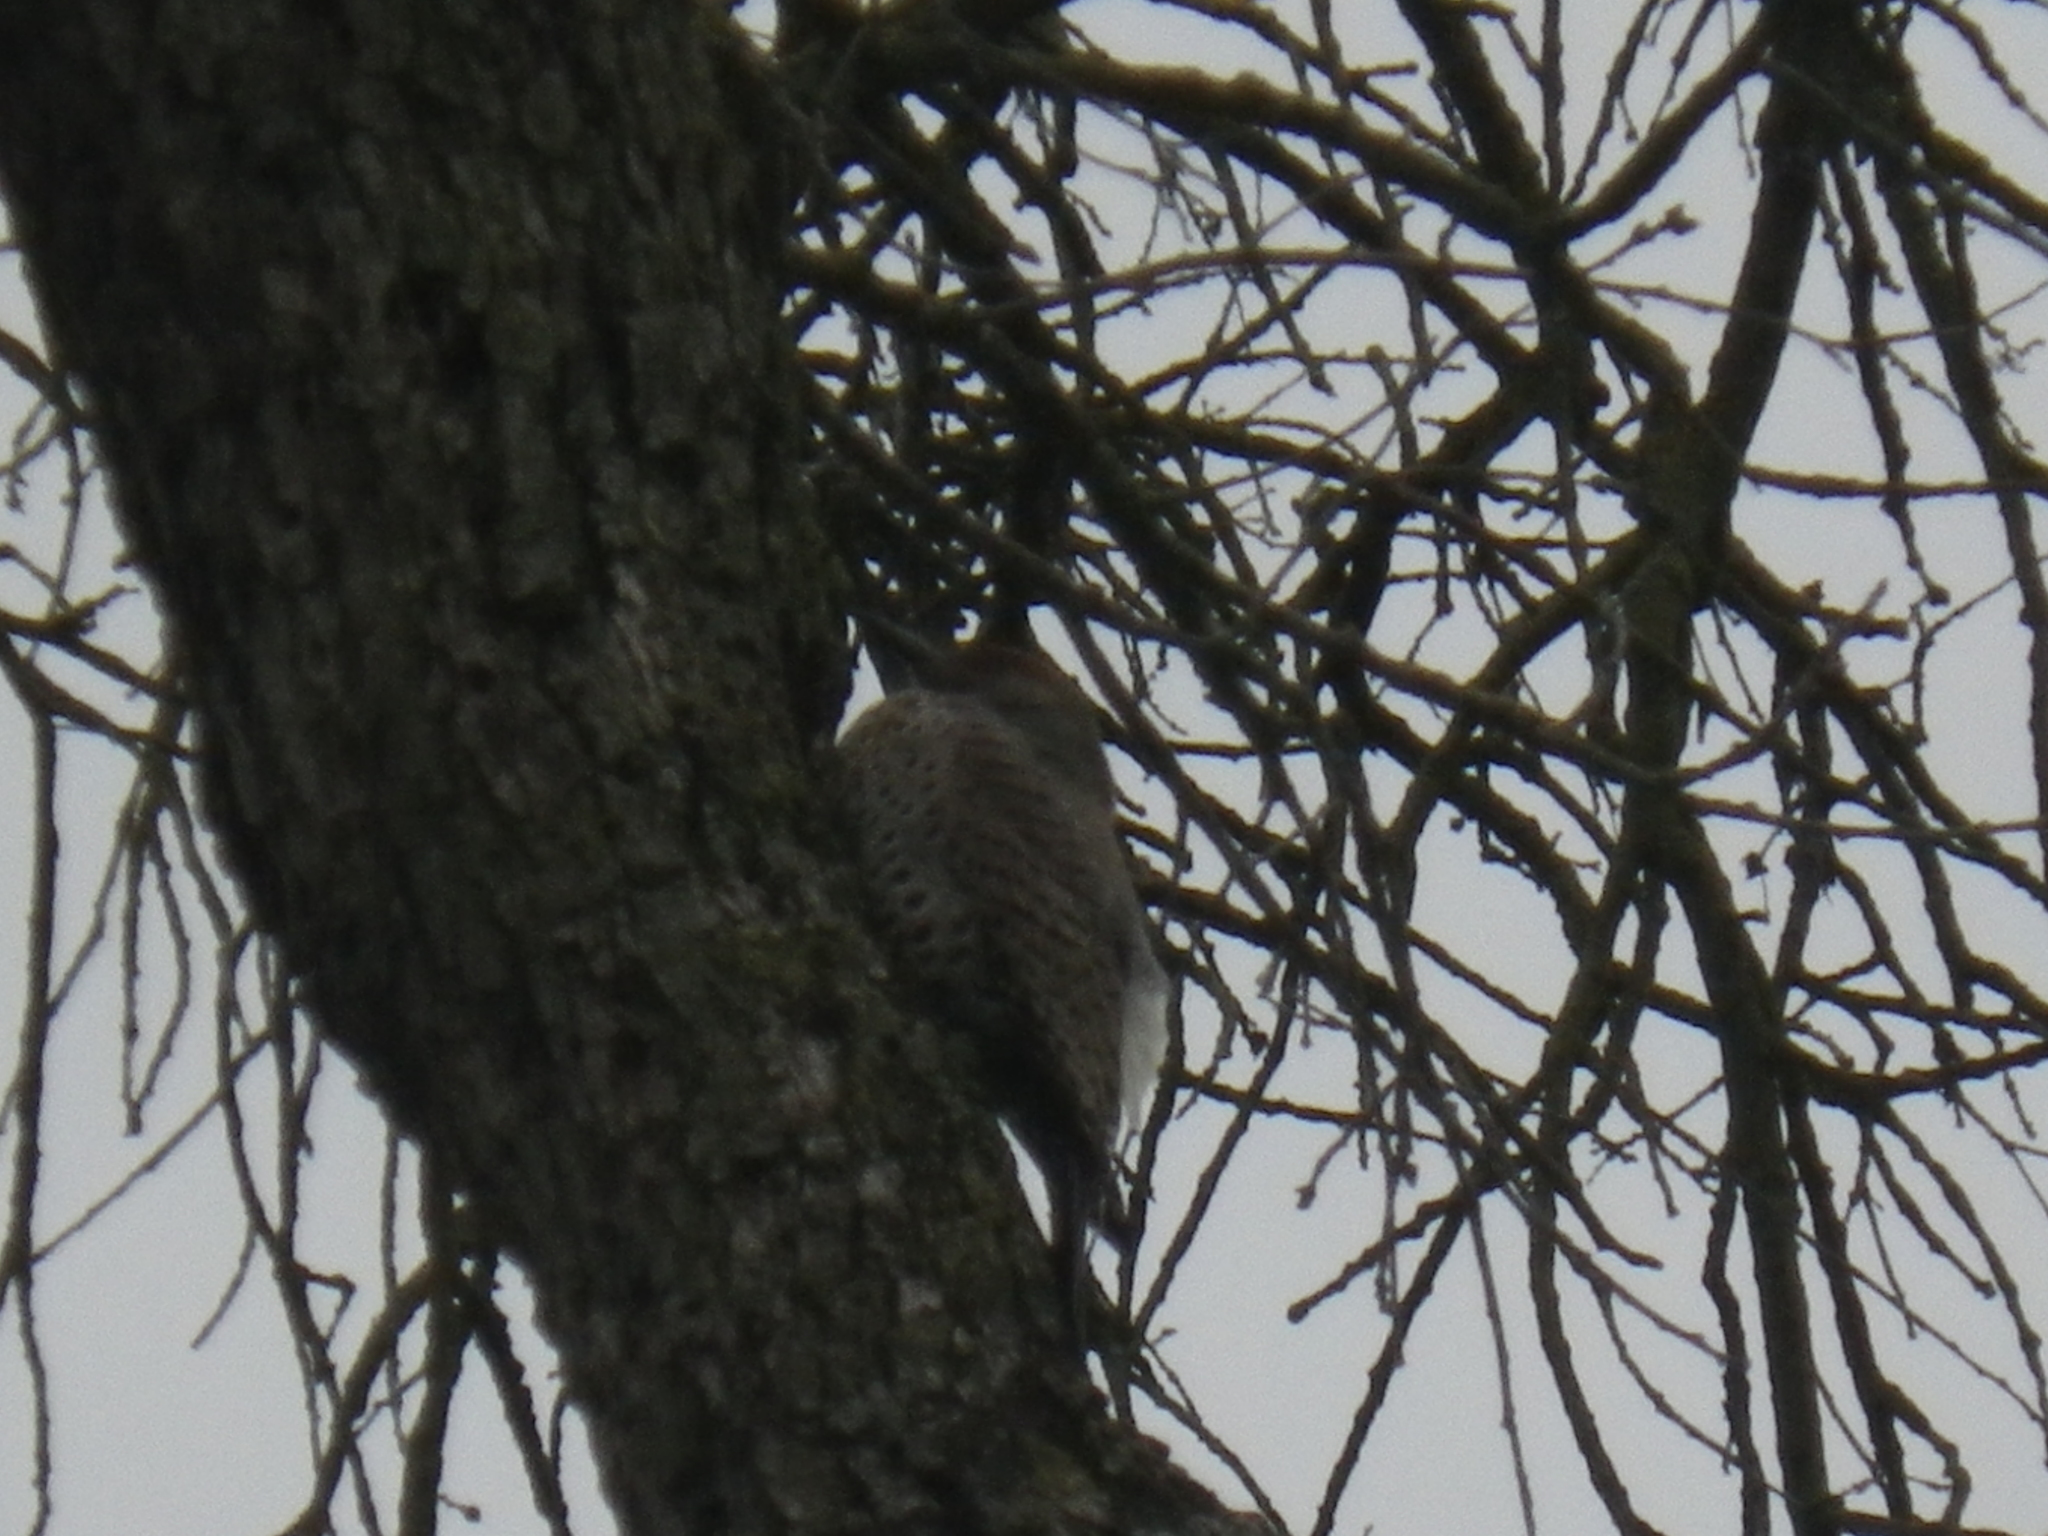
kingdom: Animalia
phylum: Chordata
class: Aves
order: Piciformes
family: Picidae
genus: Colaptes
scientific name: Colaptes auratus
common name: Northern flicker
